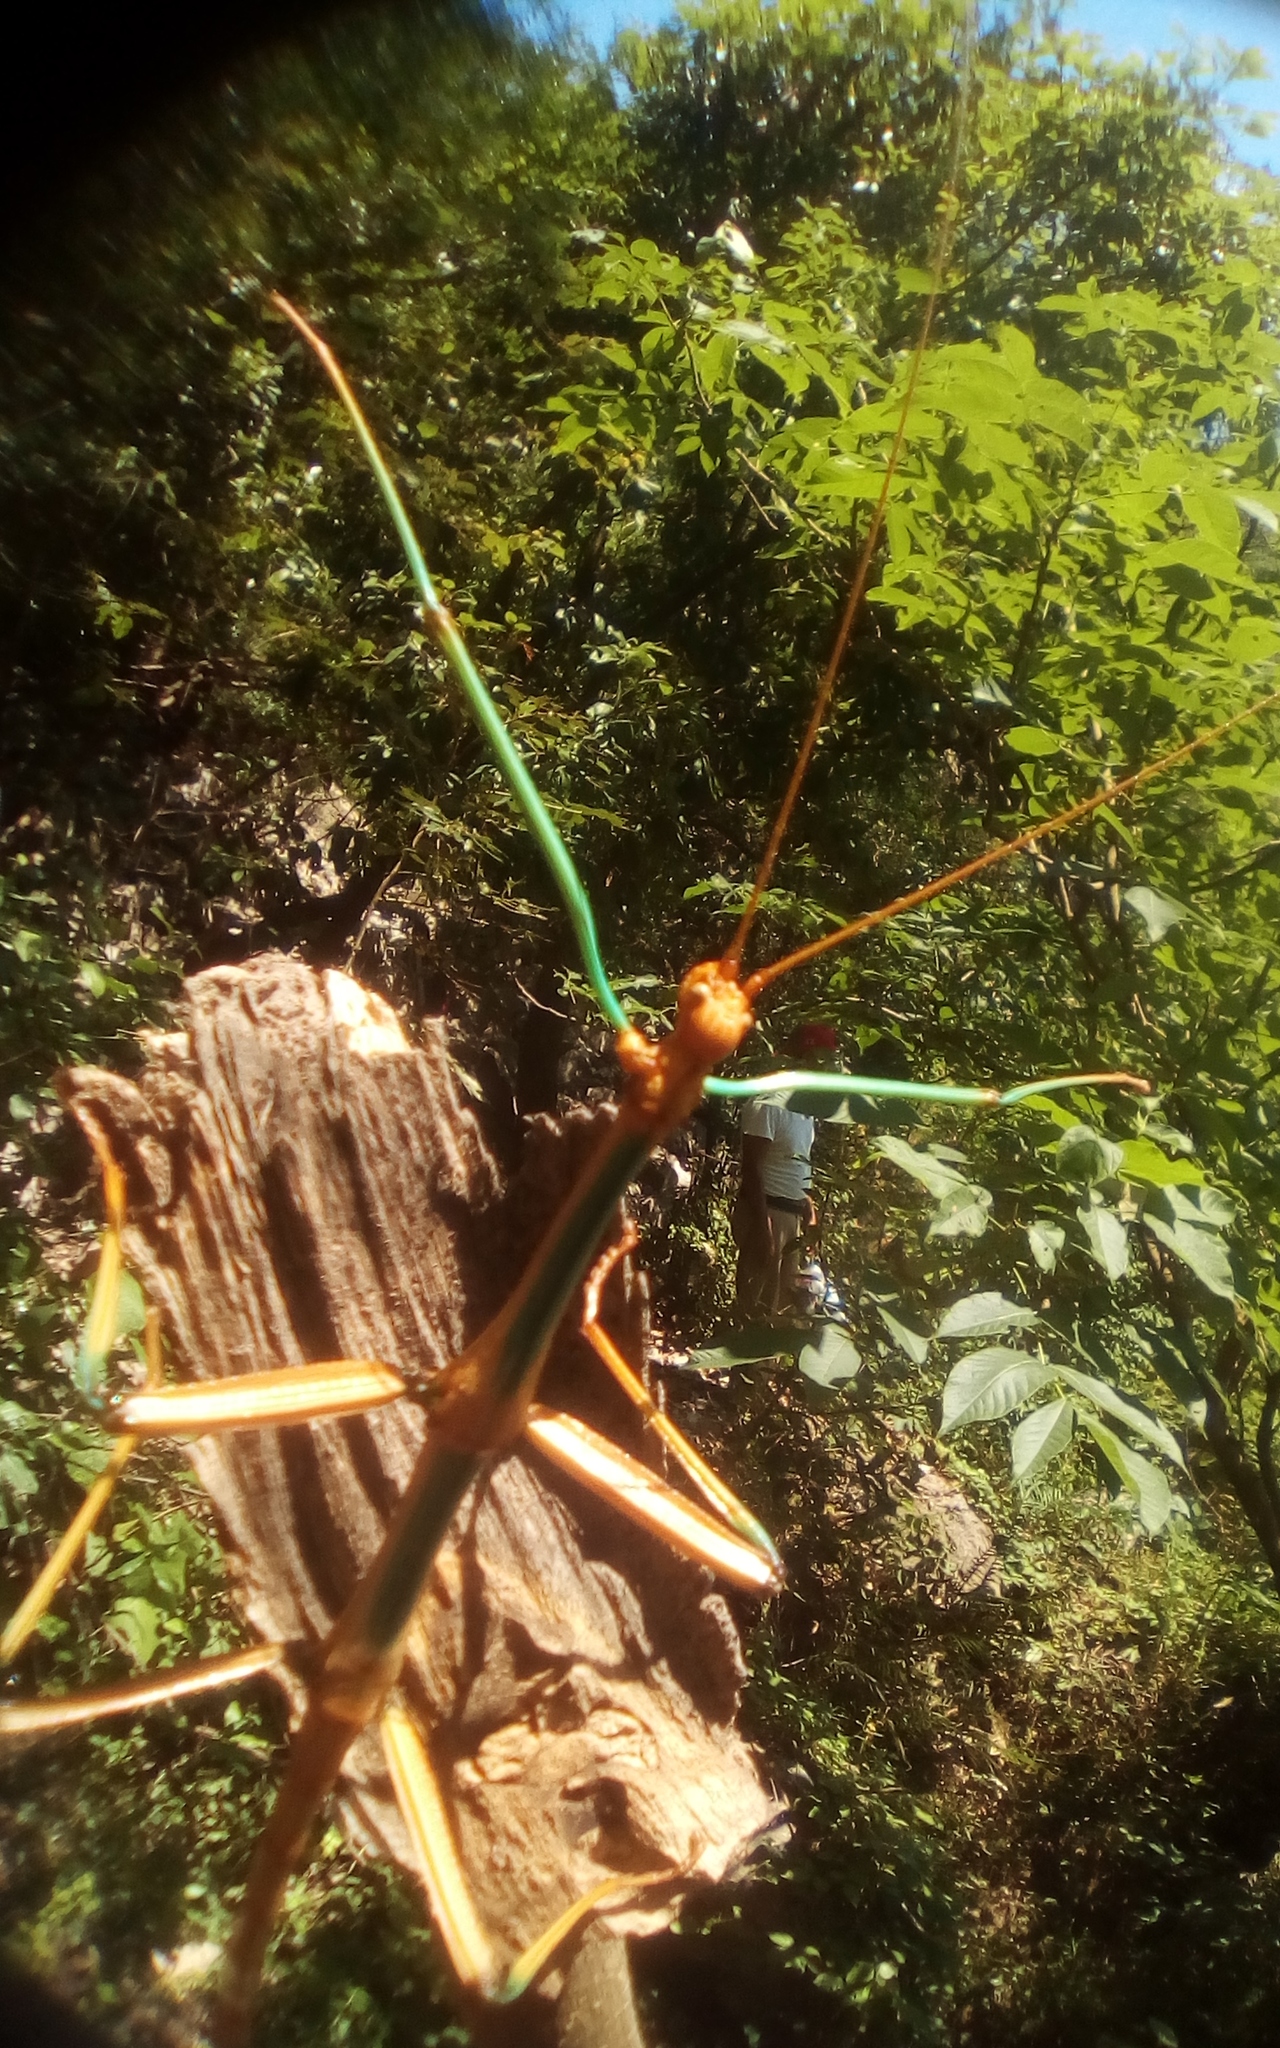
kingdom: Animalia
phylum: Arthropoda
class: Insecta
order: Phasmida
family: Diapheromeridae
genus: Megaphasma
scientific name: Megaphasma denticrus
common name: Giant walkingstick
